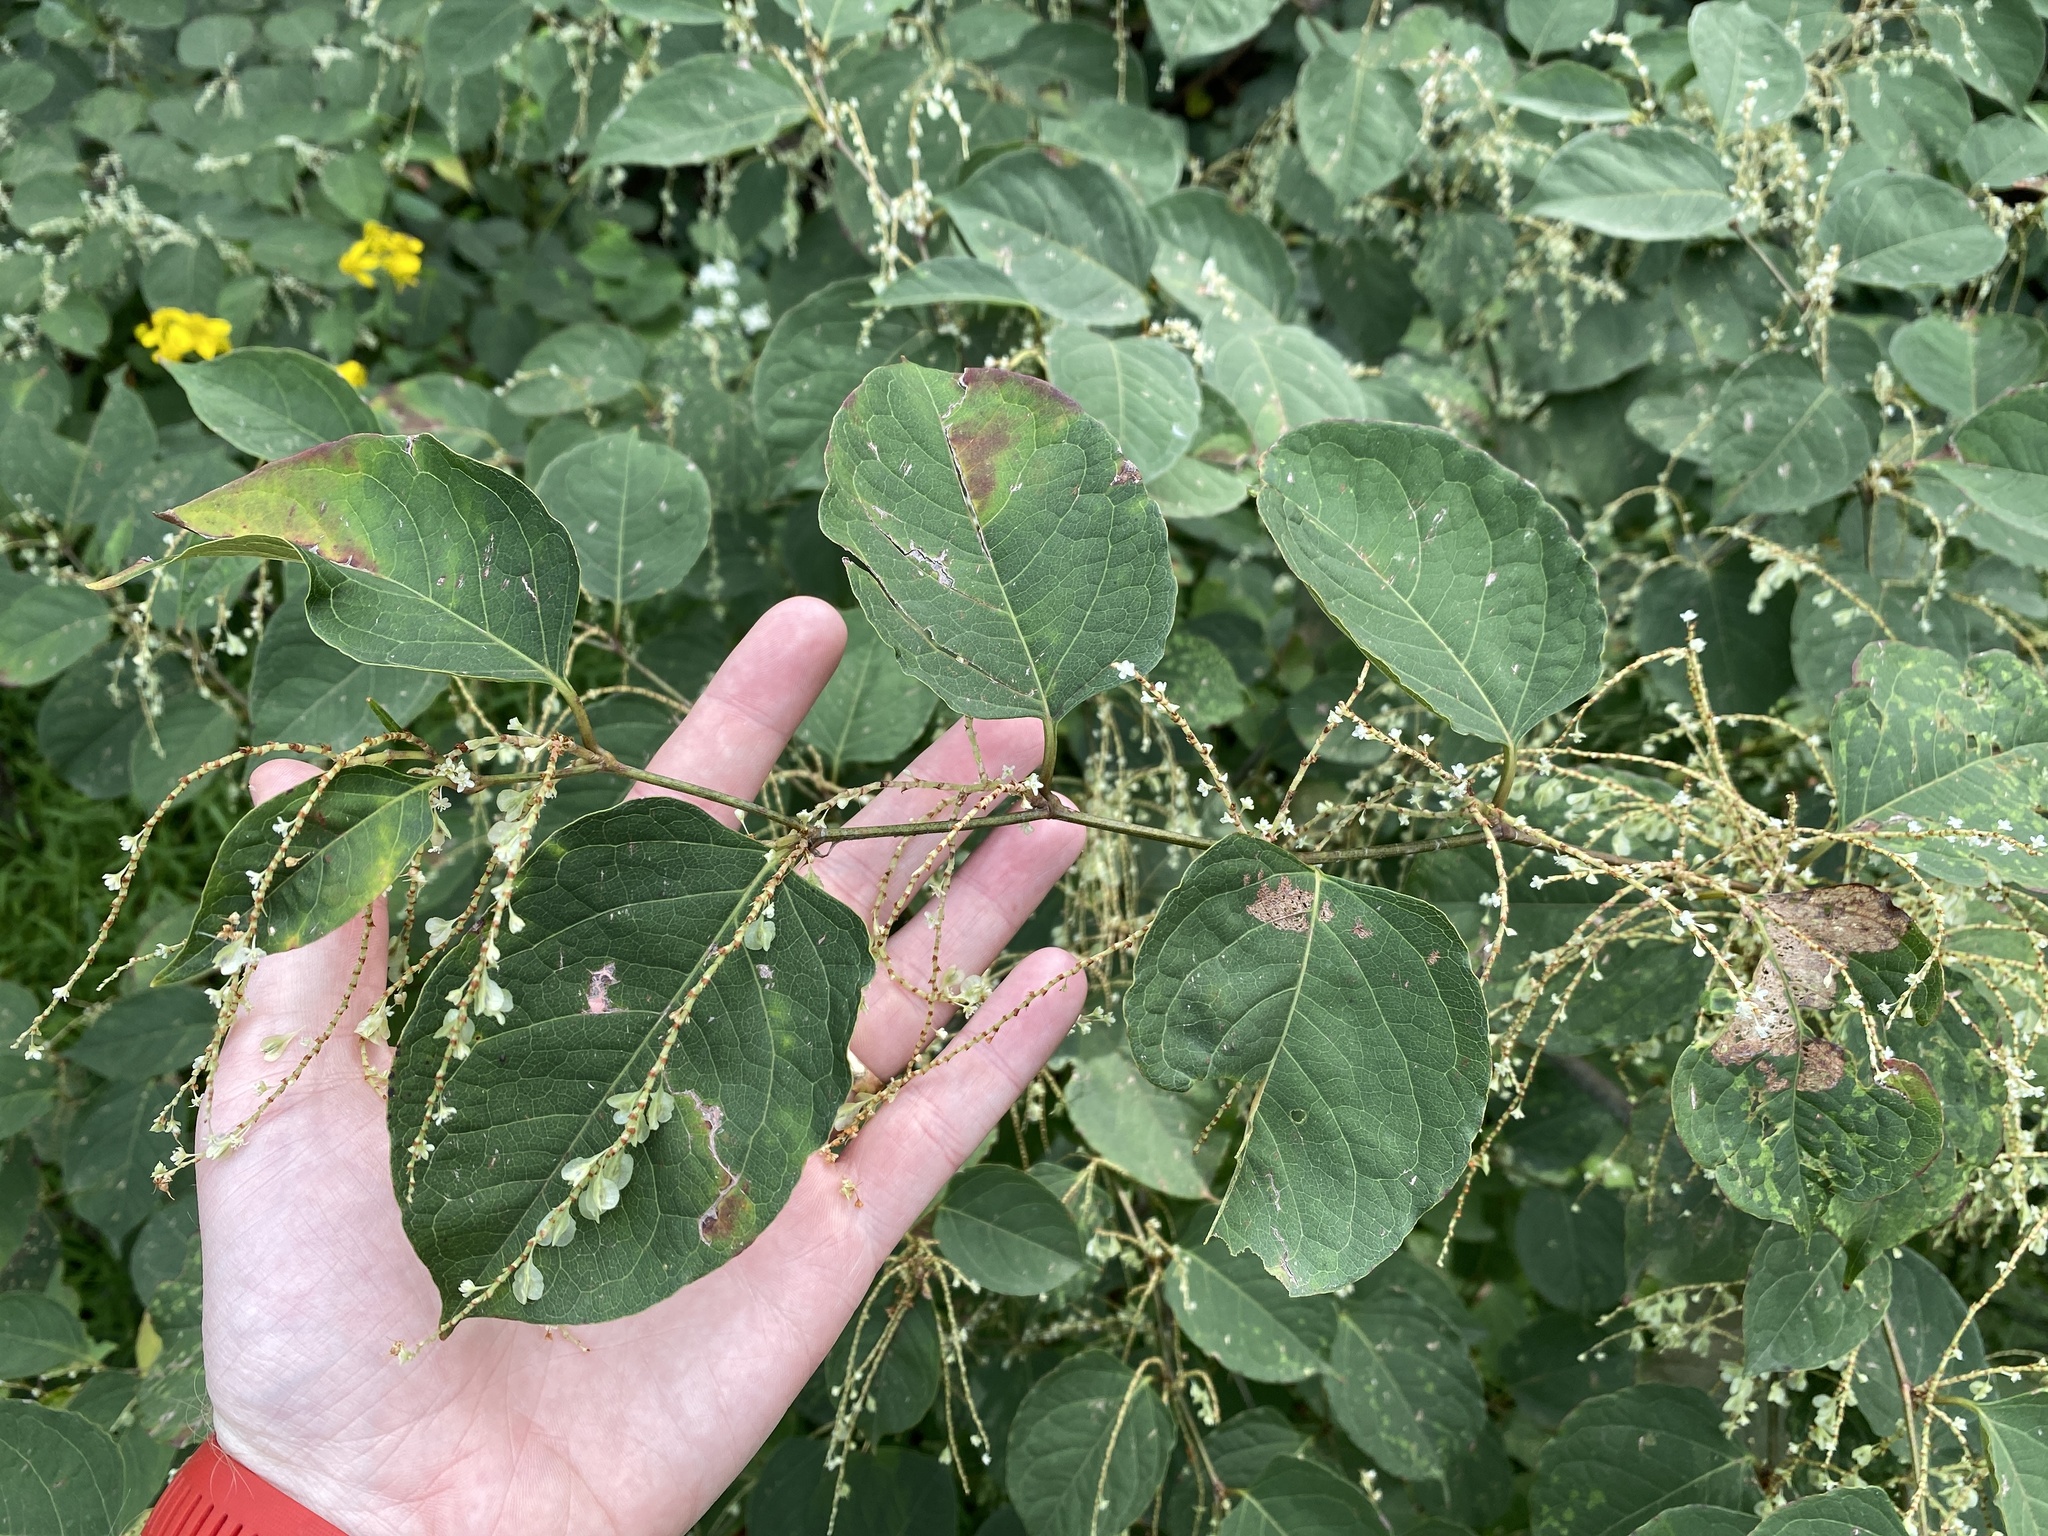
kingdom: Plantae
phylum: Tracheophyta
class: Magnoliopsida
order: Caryophyllales
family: Polygonaceae
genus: Reynoutria
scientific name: Reynoutria japonica
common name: Japanese knotweed
